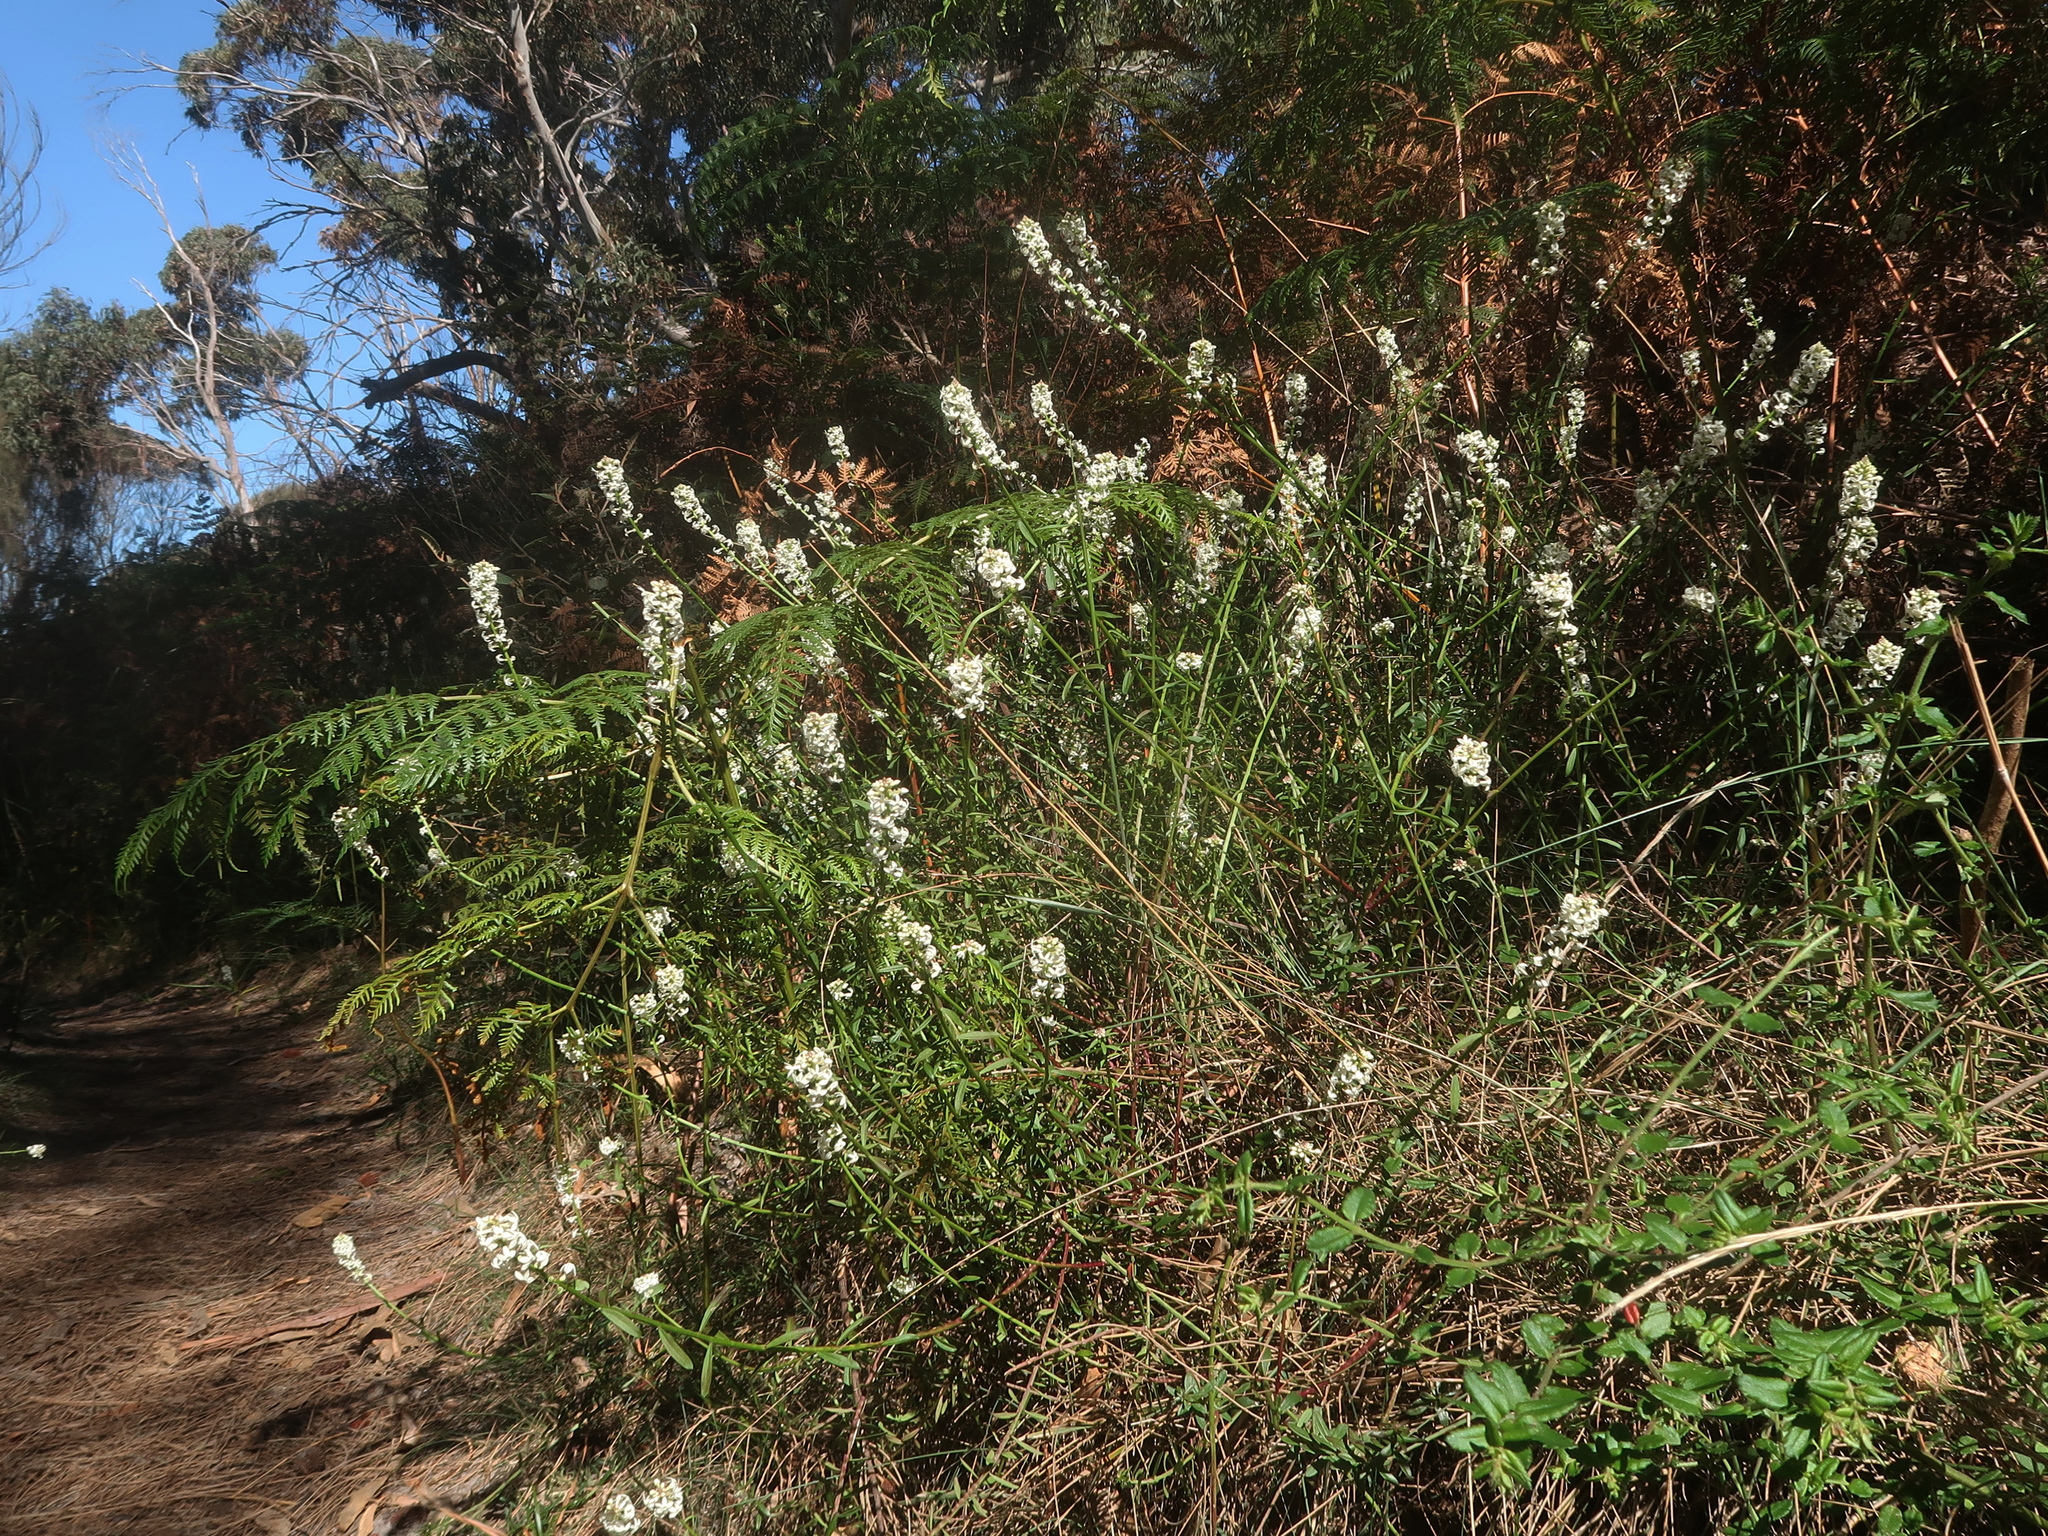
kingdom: Plantae
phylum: Tracheophyta
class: Magnoliopsida
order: Celastrales
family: Celastraceae
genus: Stackhousia
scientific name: Stackhousia monogyna
